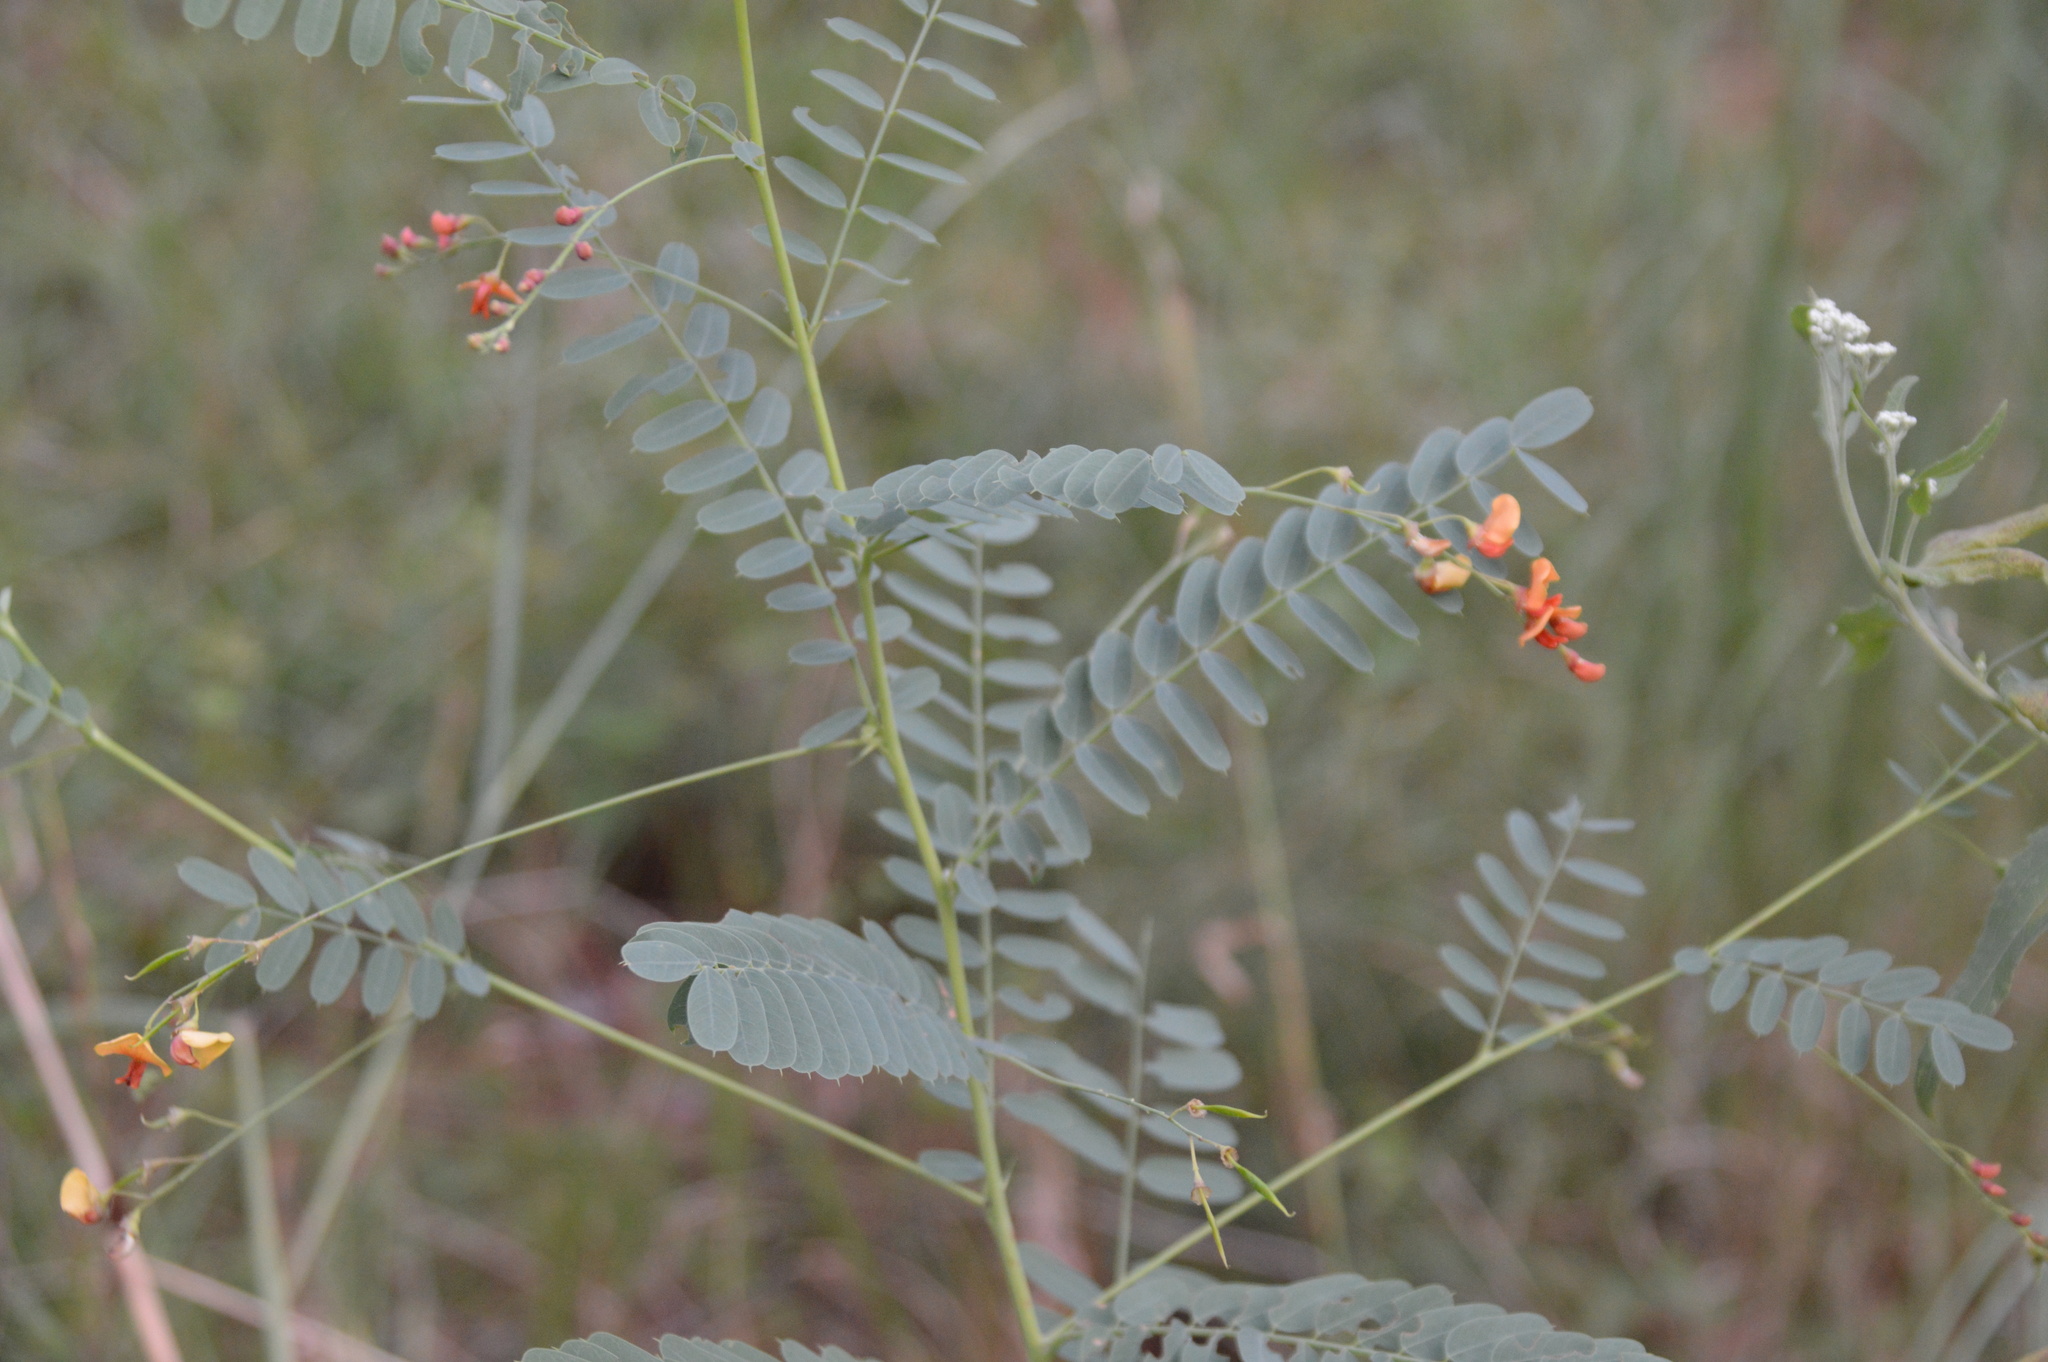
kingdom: Plantae
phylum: Tracheophyta
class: Magnoliopsida
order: Fabales
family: Fabaceae
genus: Sesbania
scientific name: Sesbania vesicaria
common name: Bagpod
